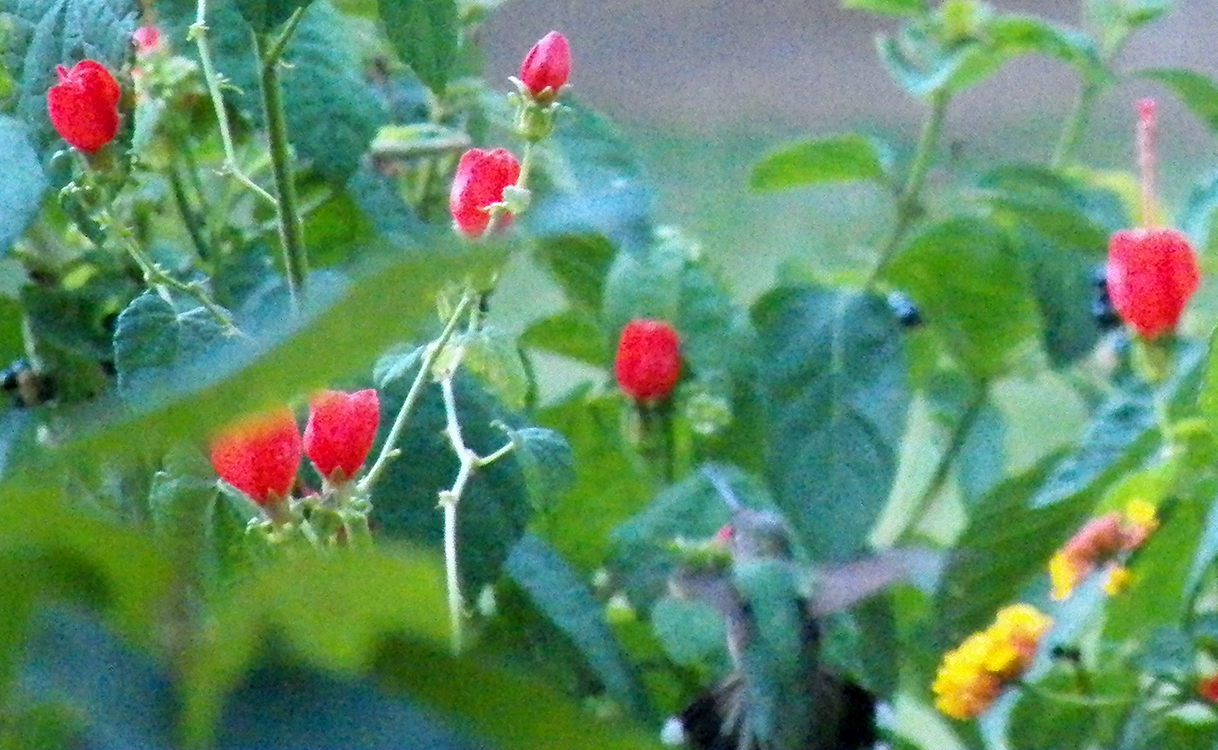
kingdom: Animalia
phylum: Chordata
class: Aves
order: Apodiformes
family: Trochilidae
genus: Archilochus
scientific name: Archilochus colubris
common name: Ruby-throated hummingbird
